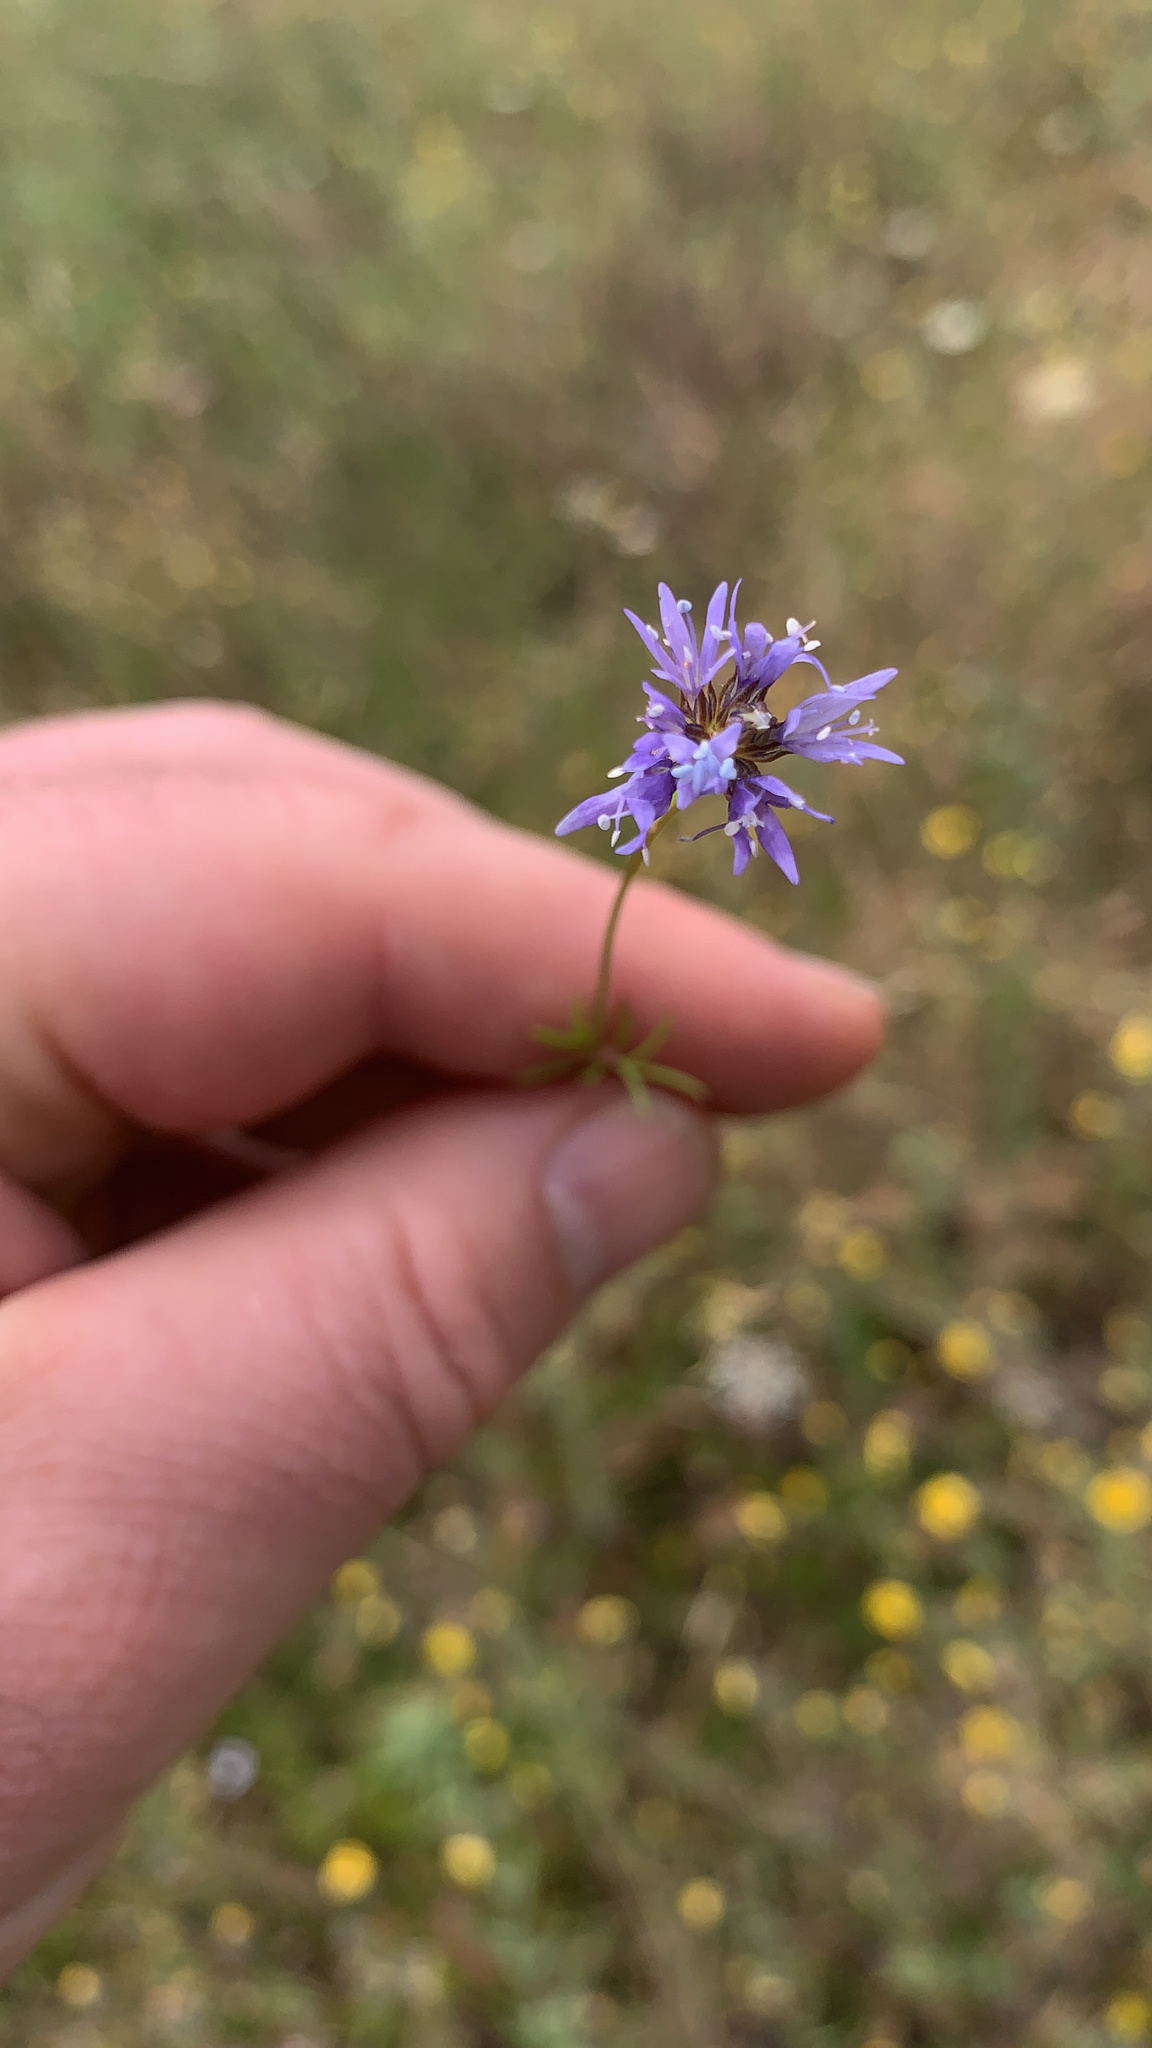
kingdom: Plantae
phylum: Tracheophyta
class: Magnoliopsida
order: Ericales
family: Polemoniaceae
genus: Gilia
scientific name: Gilia capitata
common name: Bluehead gilia
